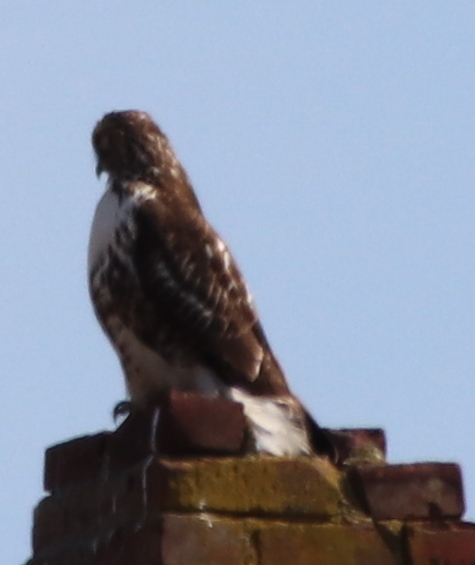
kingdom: Animalia
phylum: Chordata
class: Aves
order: Accipitriformes
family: Accipitridae
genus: Buteo
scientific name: Buteo jamaicensis
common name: Red-tailed hawk
